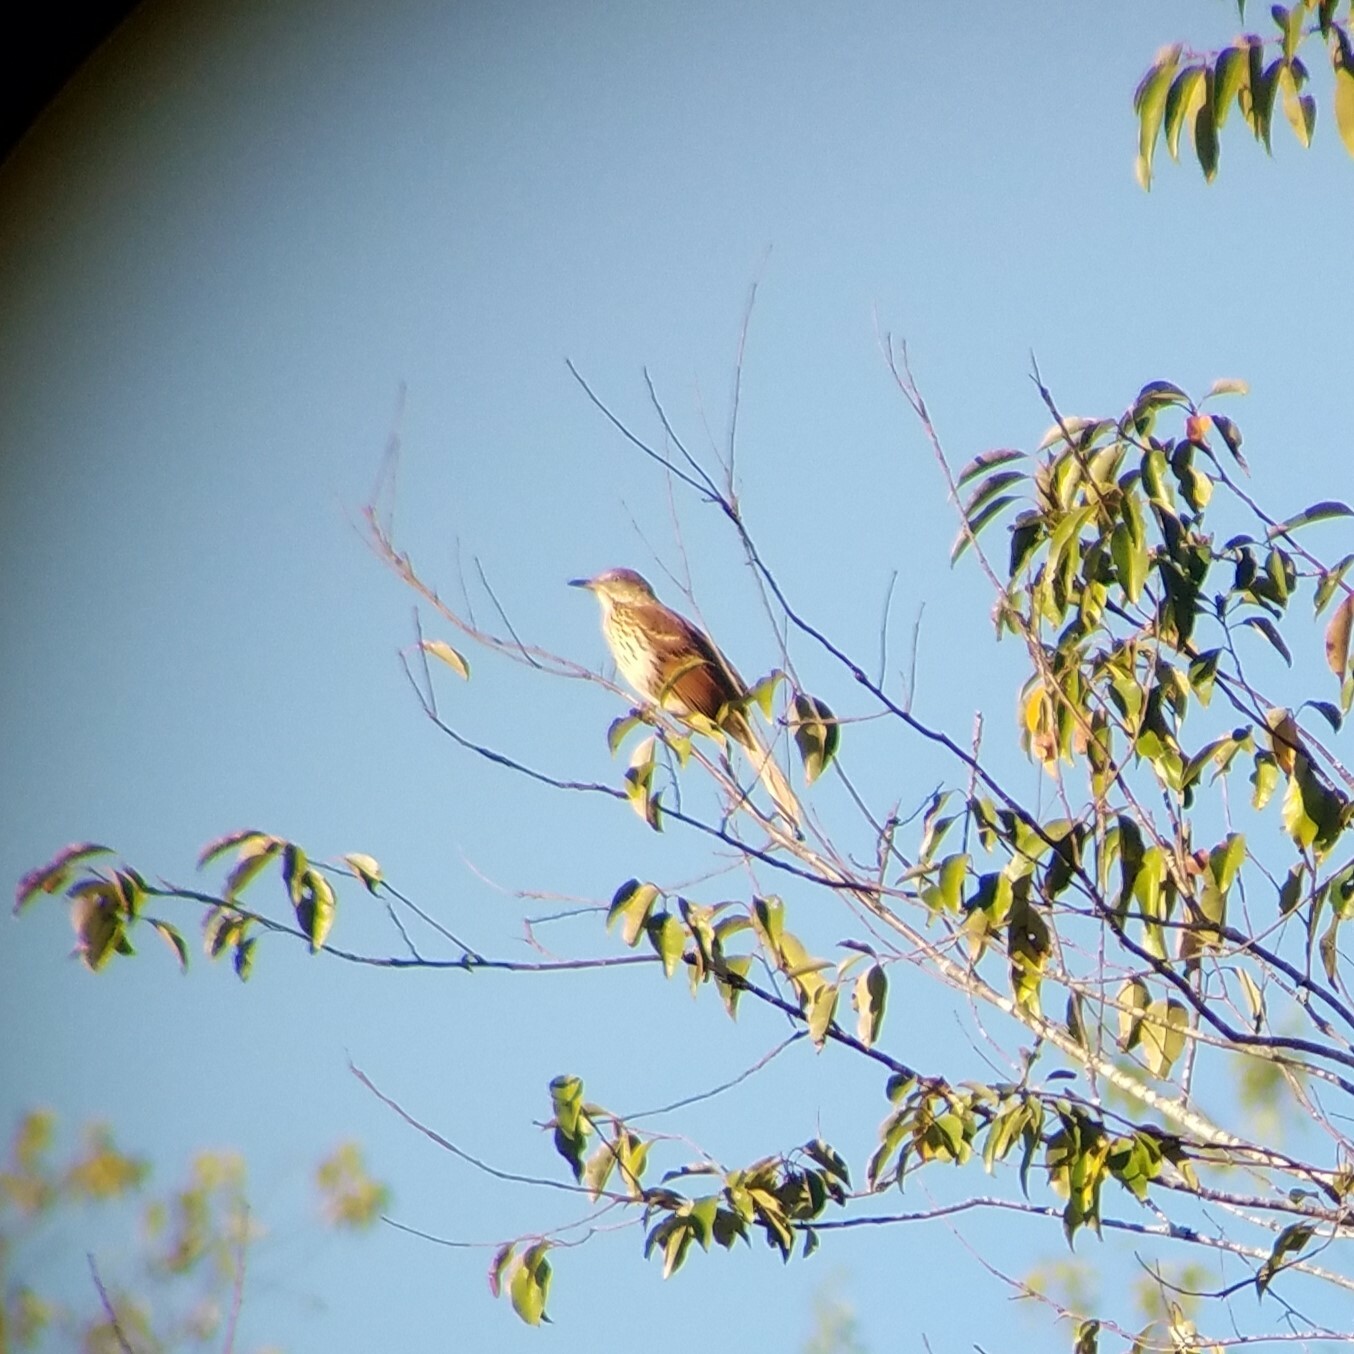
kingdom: Animalia
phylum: Chordata
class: Aves
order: Passeriformes
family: Mimidae
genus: Toxostoma
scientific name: Toxostoma rufum
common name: Brown thrasher
